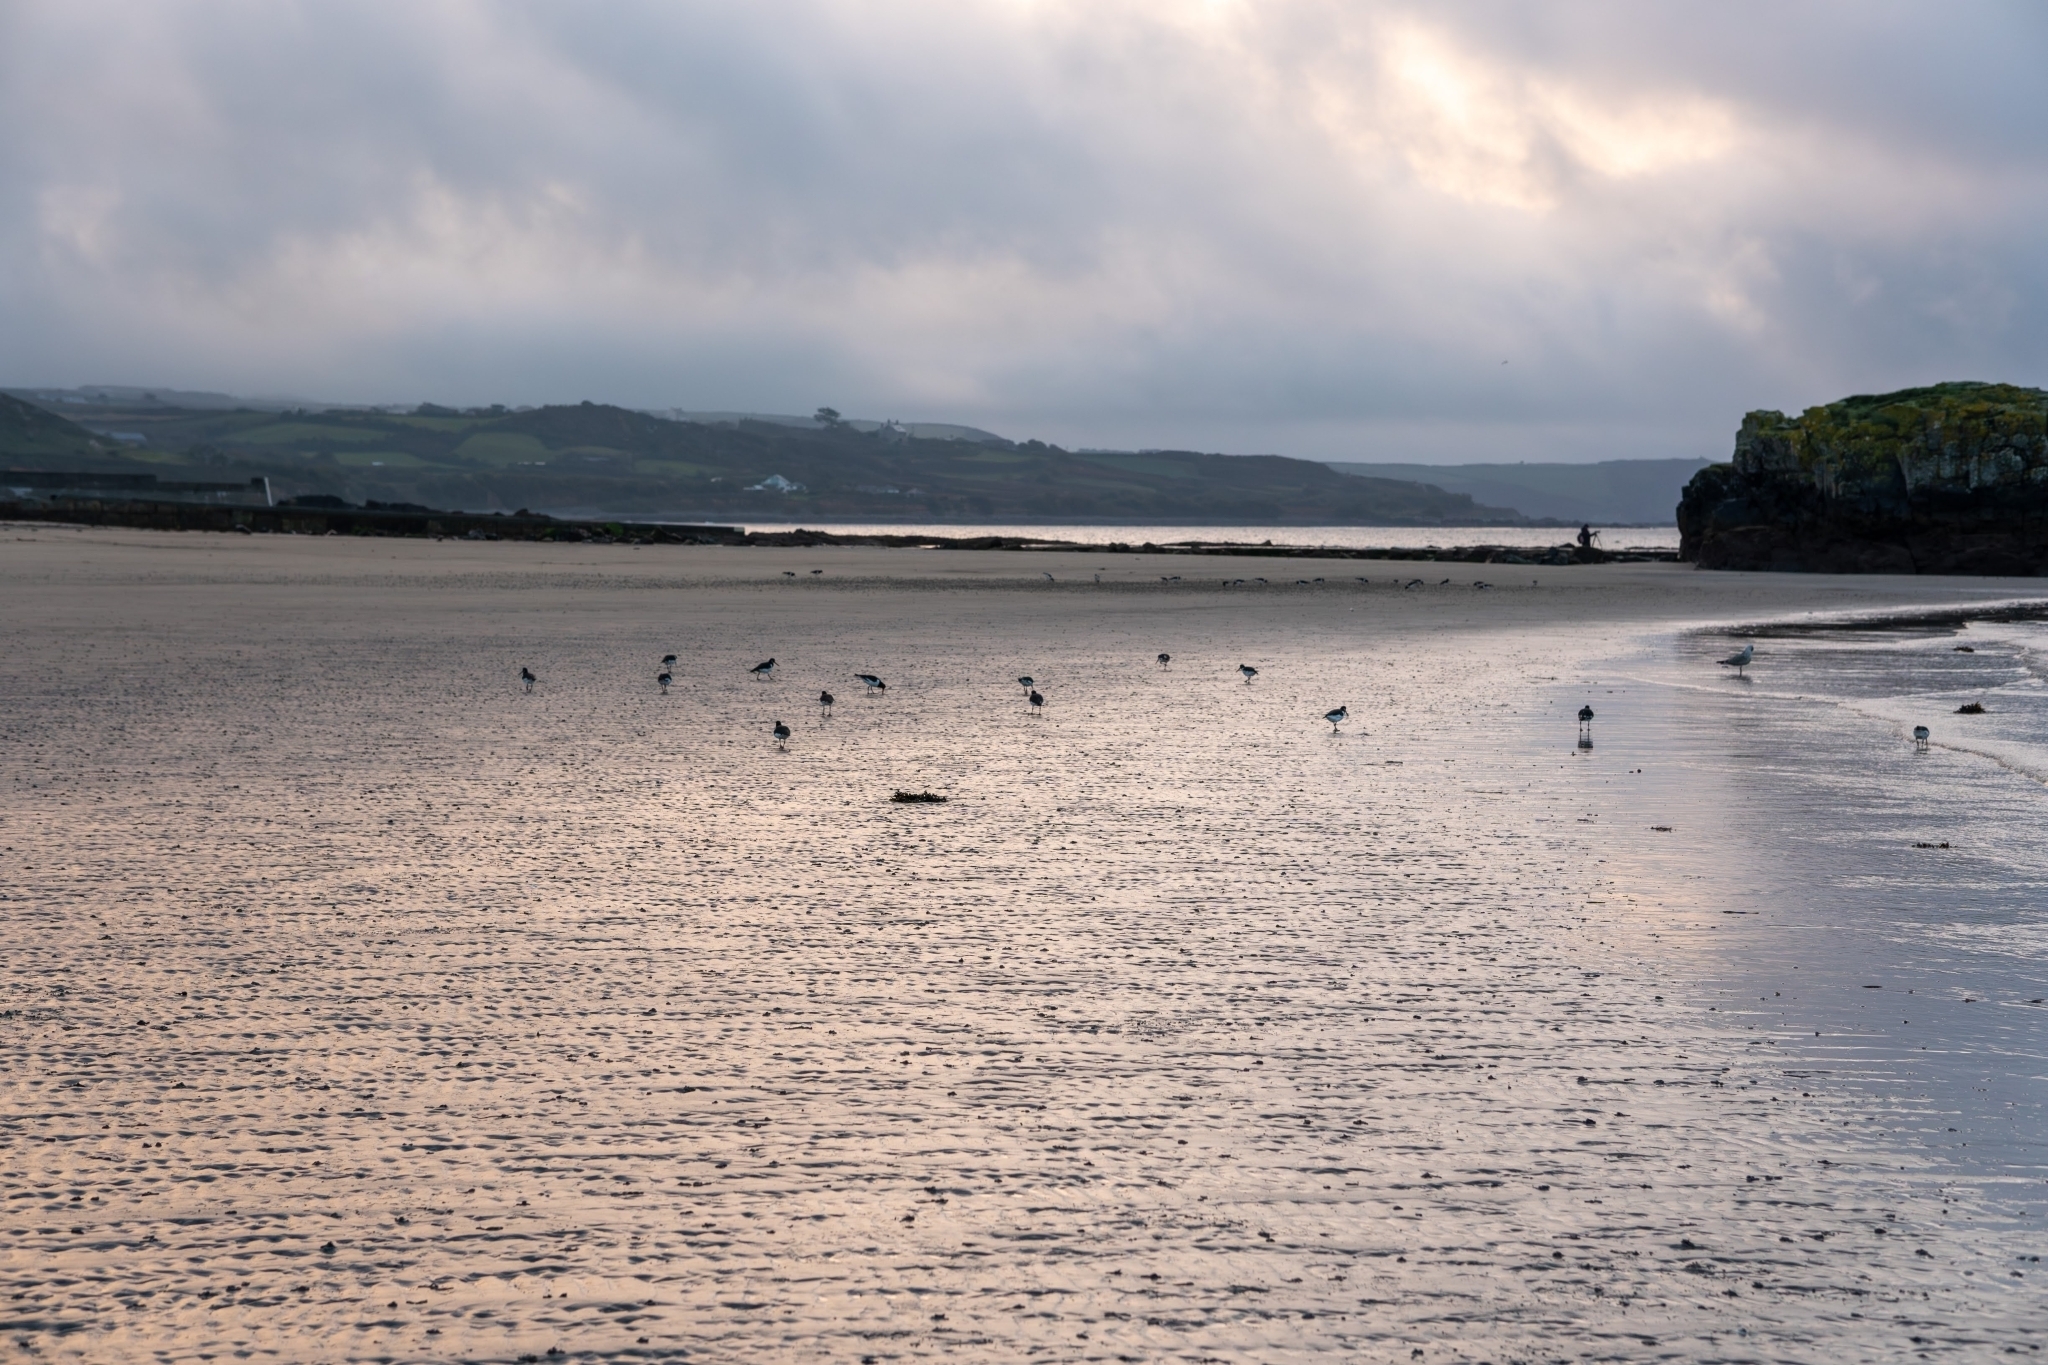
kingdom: Animalia
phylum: Chordata
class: Aves
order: Charadriiformes
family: Haematopodidae
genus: Haematopus
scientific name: Haematopus ostralegus
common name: Eurasian oystercatcher
